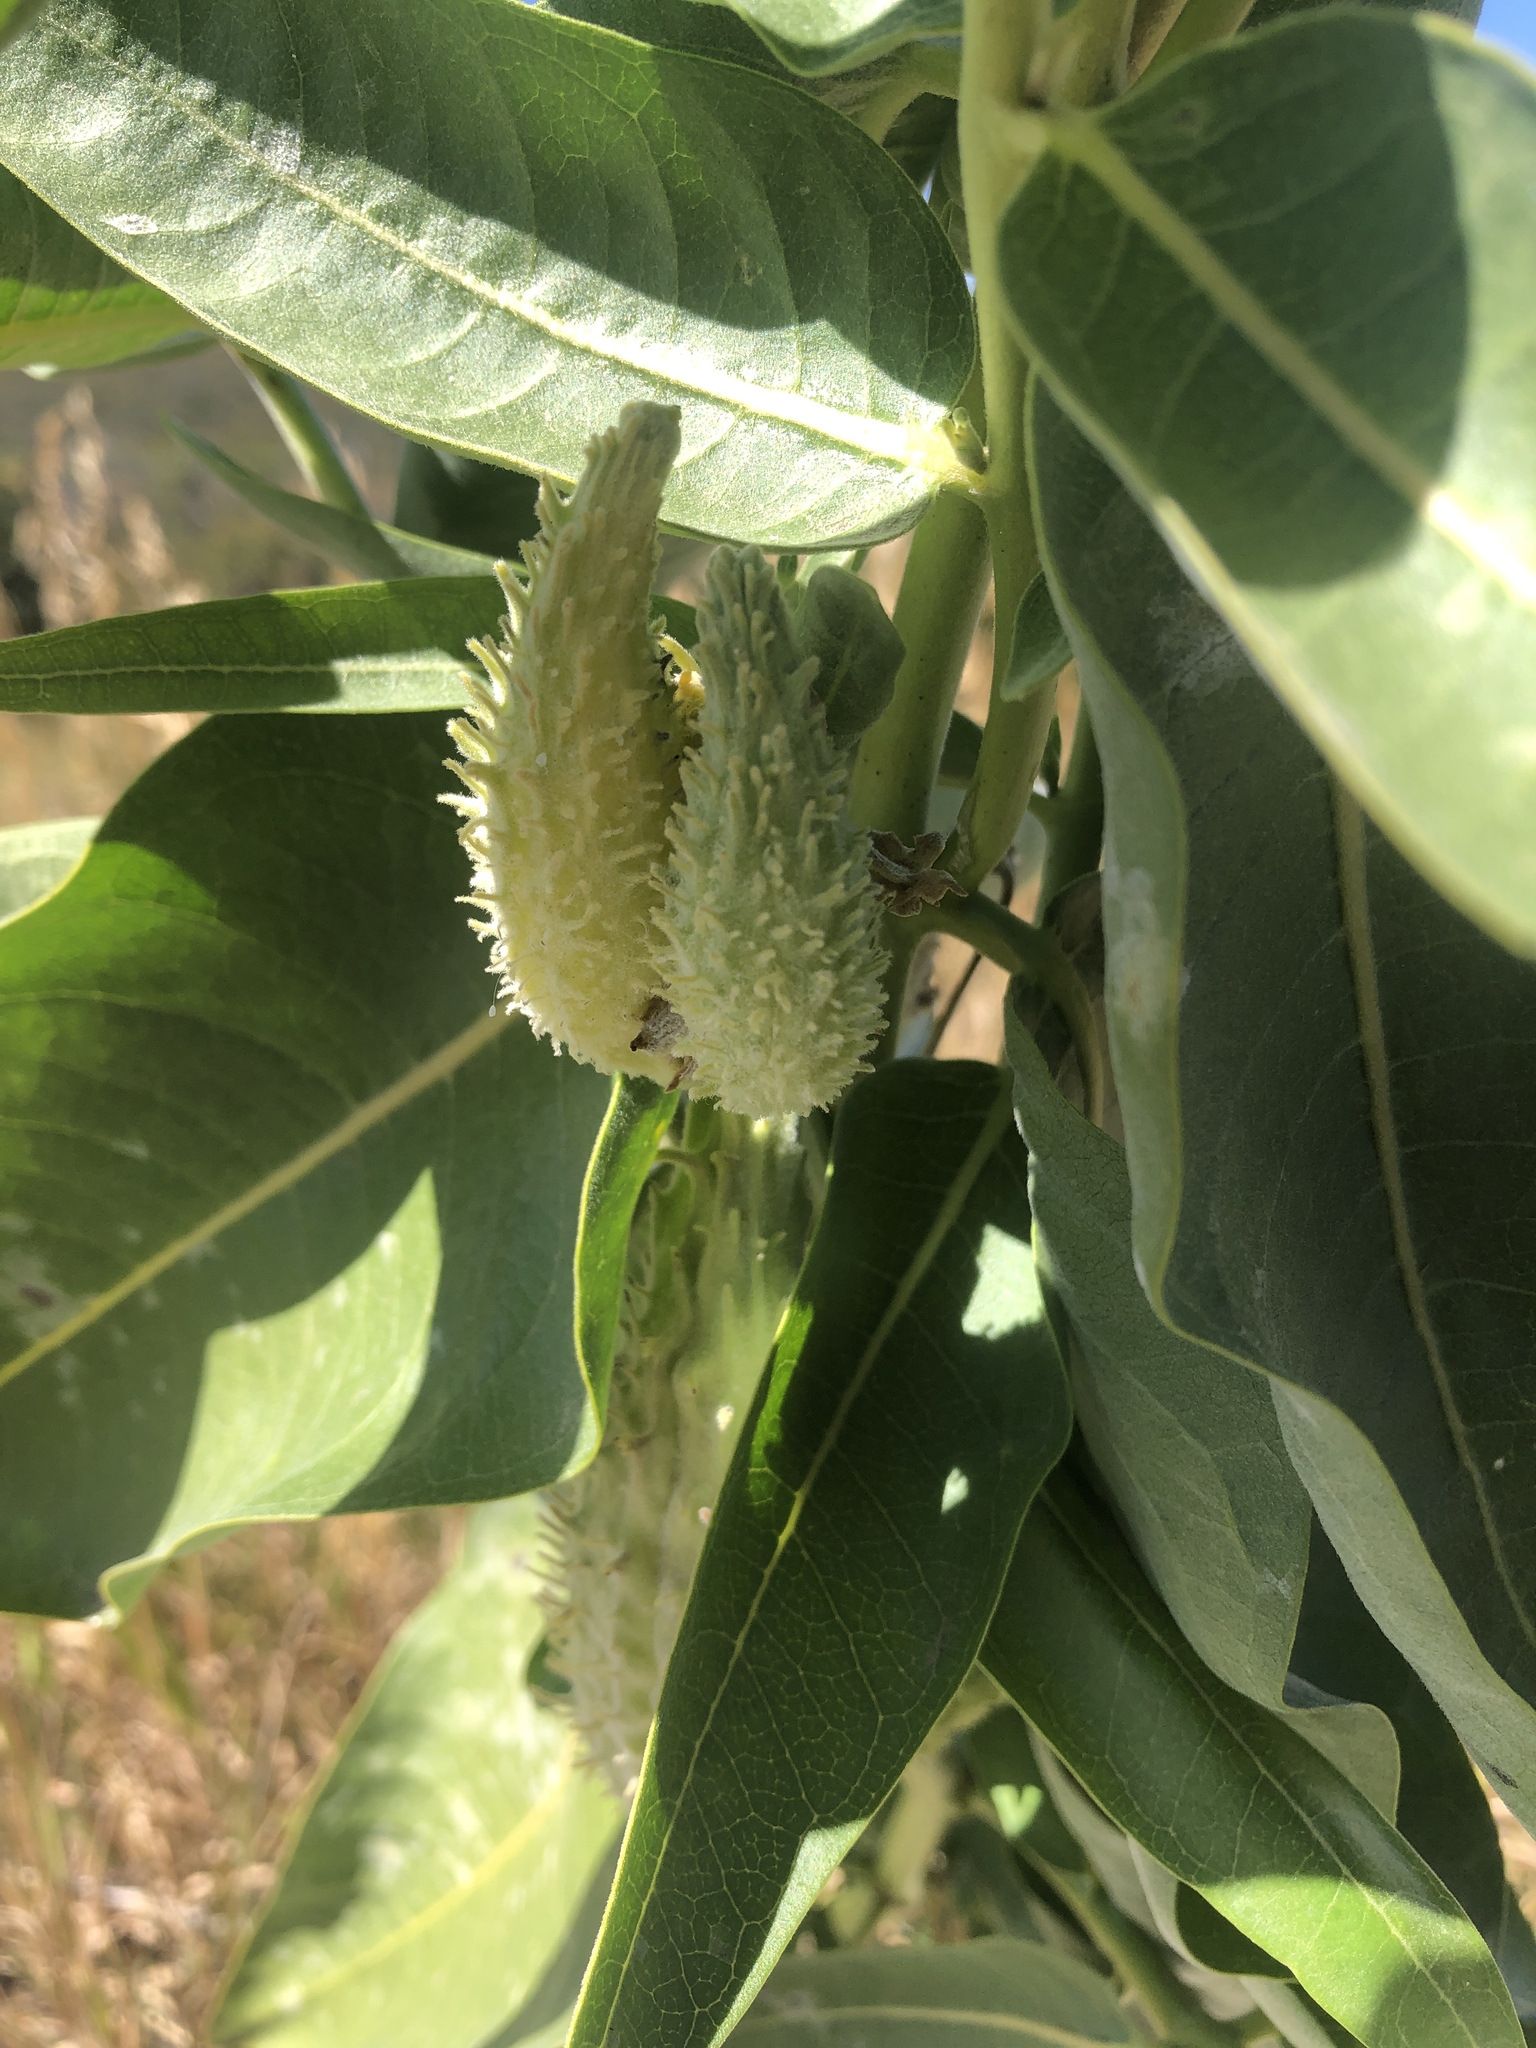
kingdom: Plantae
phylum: Tracheophyta
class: Magnoliopsida
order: Gentianales
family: Apocynaceae
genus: Asclepias
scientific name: Asclepias speciosa
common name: Showy milkweed
